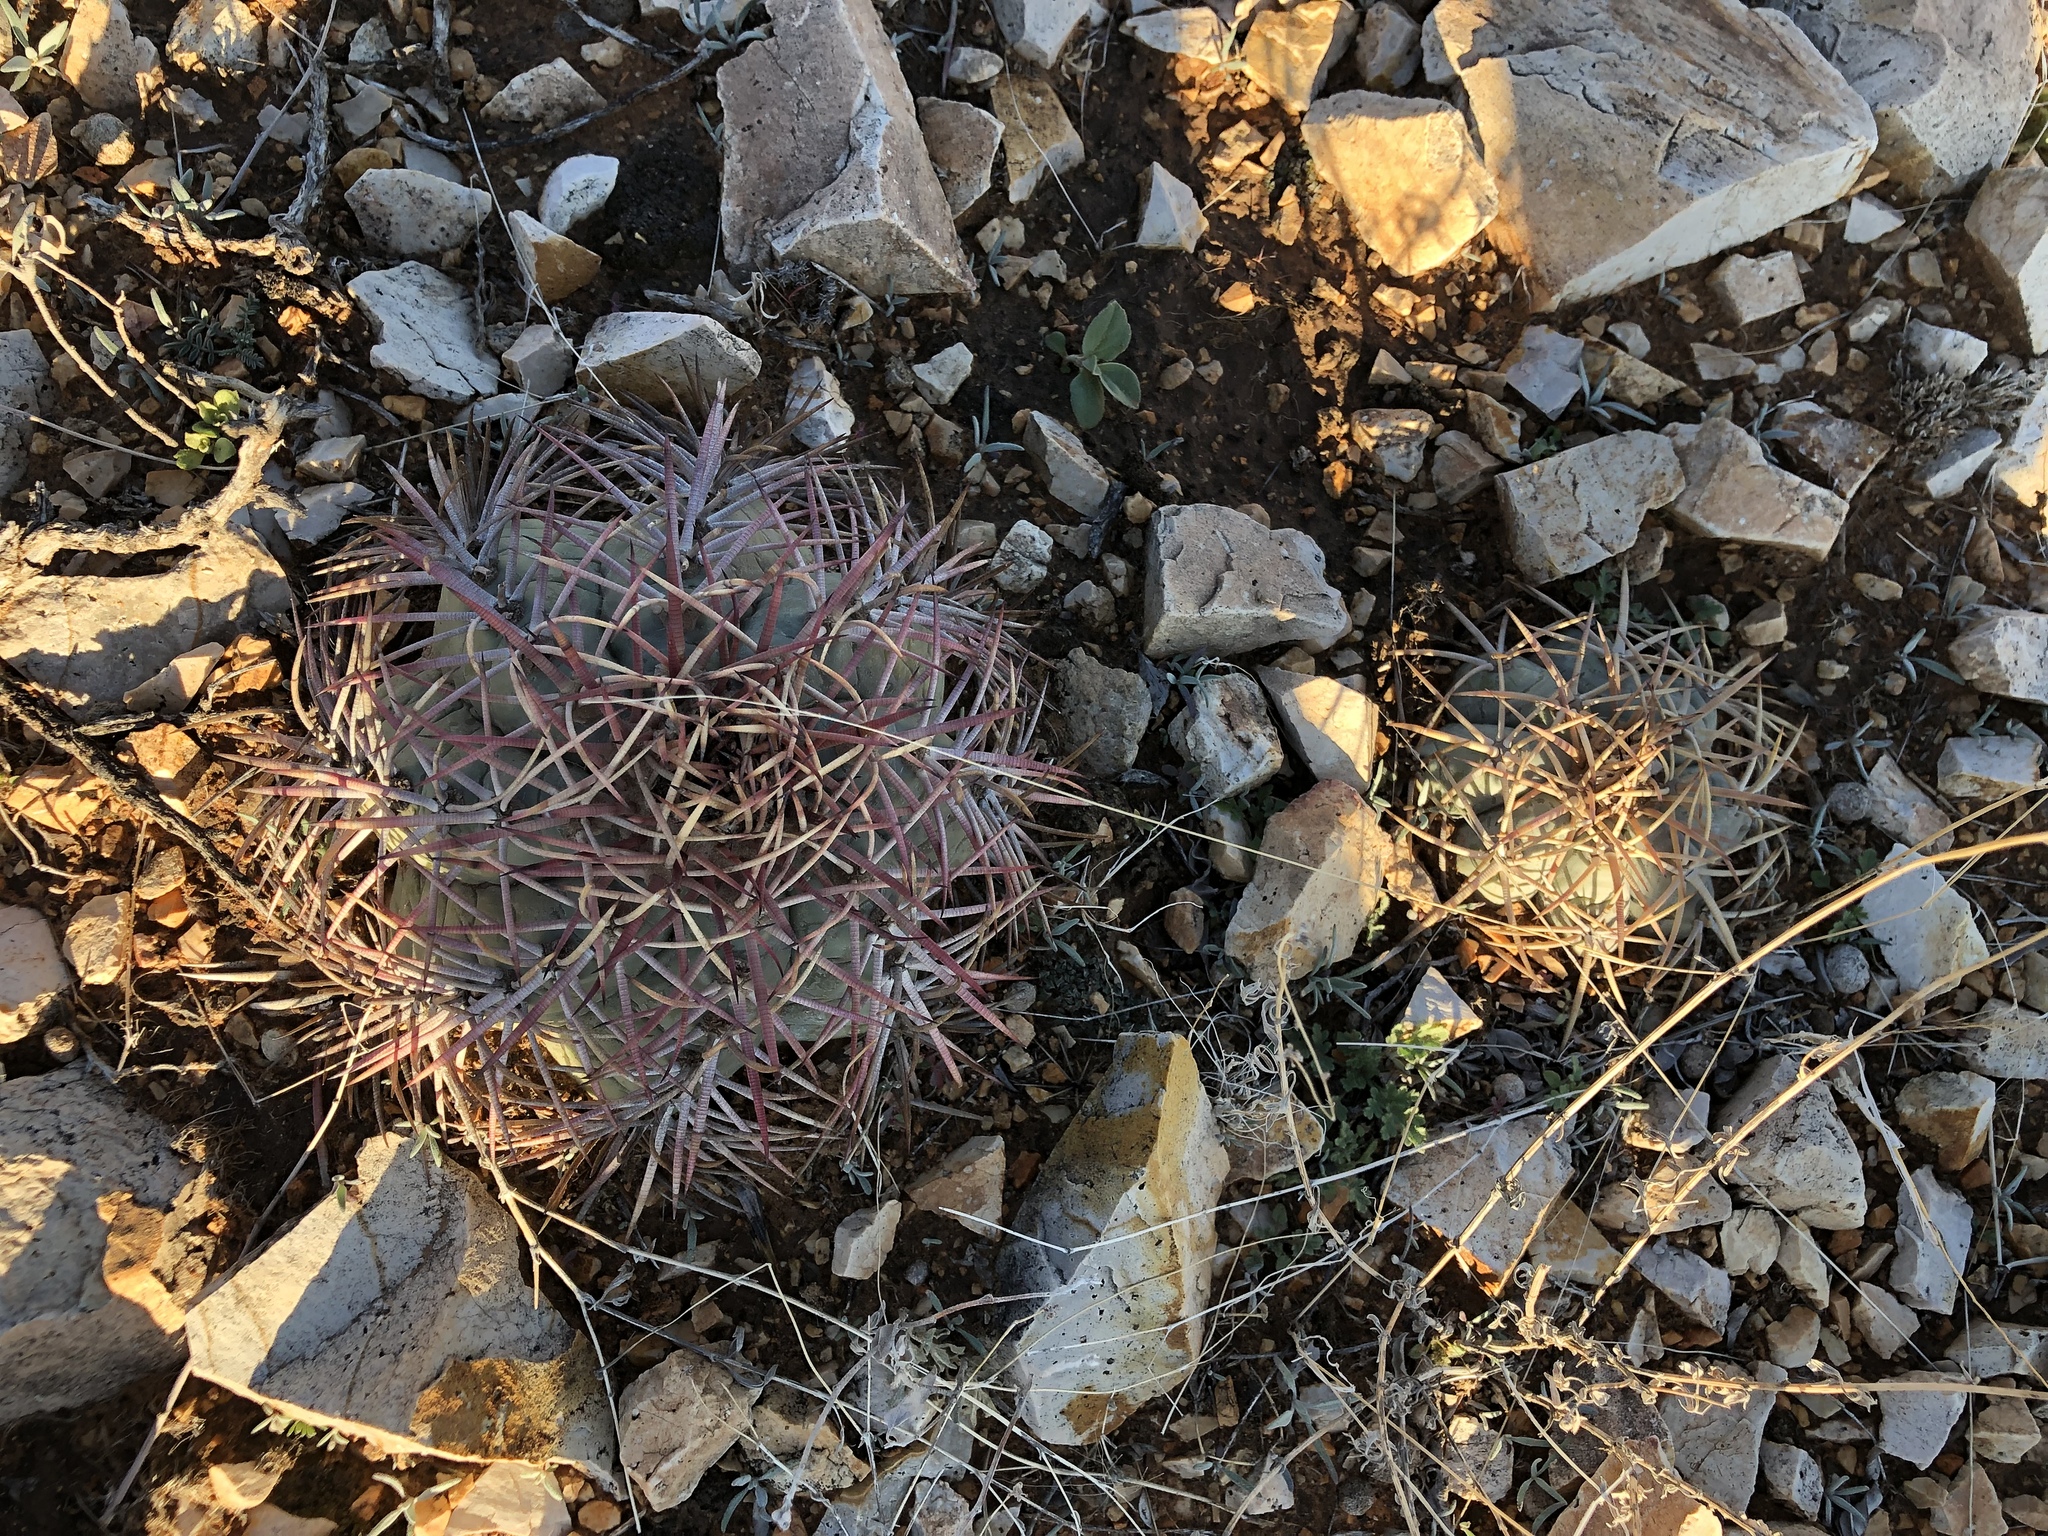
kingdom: Plantae
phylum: Tracheophyta
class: Magnoliopsida
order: Caryophyllales
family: Cactaceae
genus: Echinocactus
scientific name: Echinocactus horizonthalonius
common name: Devilshead
